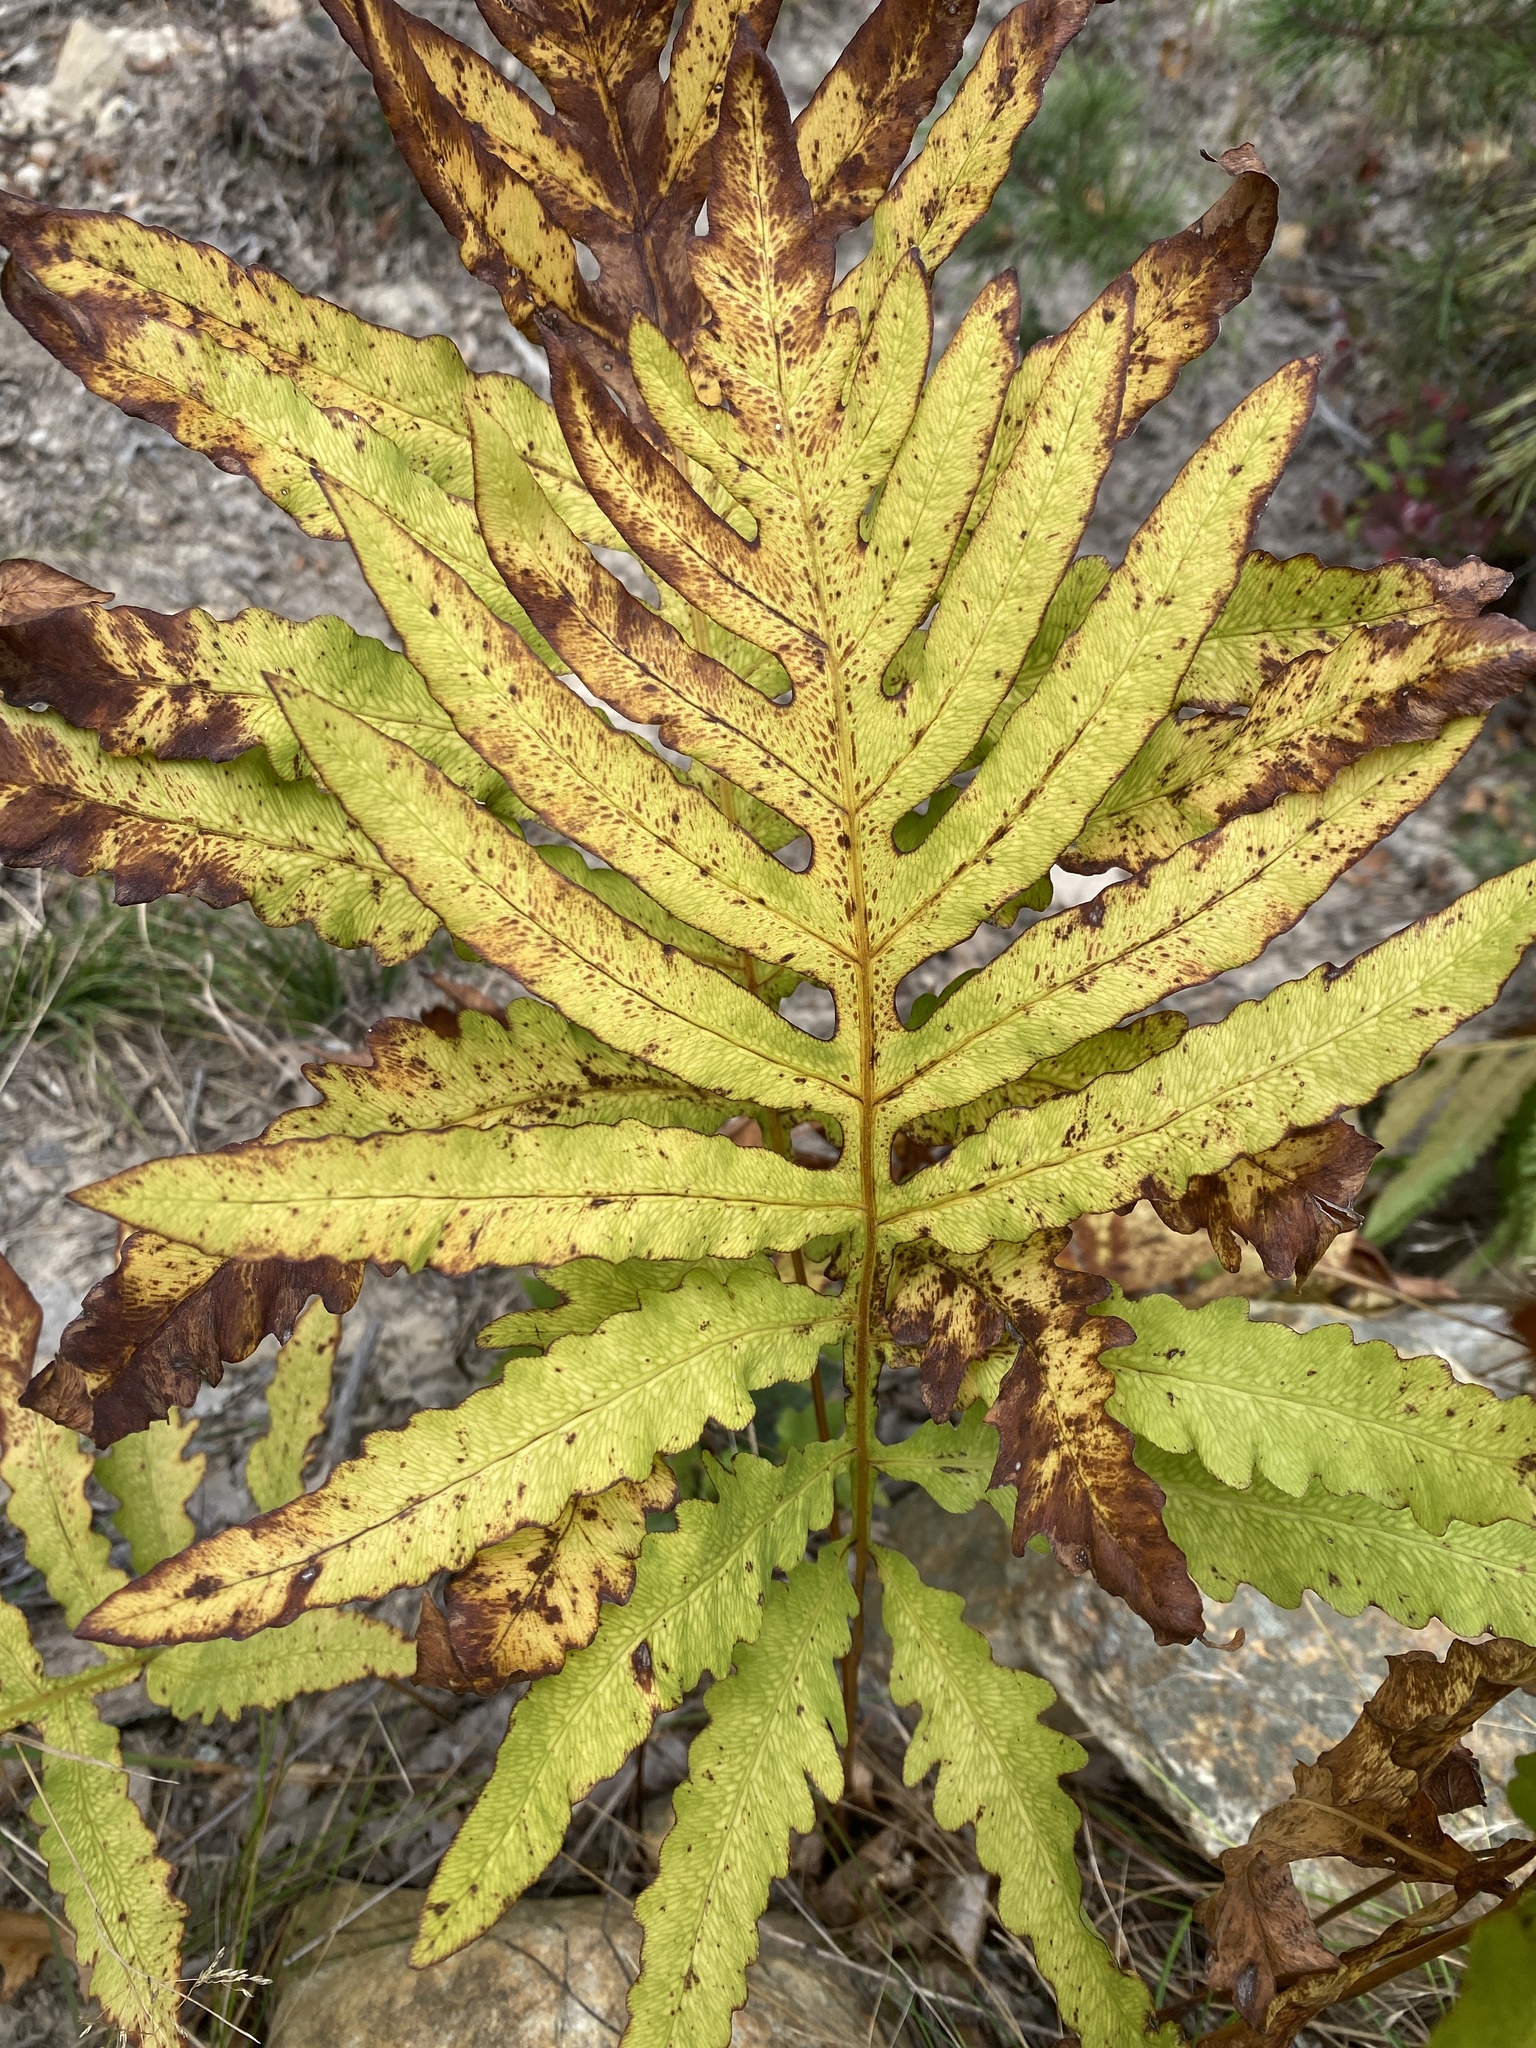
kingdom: Plantae
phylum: Tracheophyta
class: Polypodiopsida
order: Polypodiales
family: Onocleaceae
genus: Onoclea
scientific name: Onoclea sensibilis
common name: Sensitive fern
